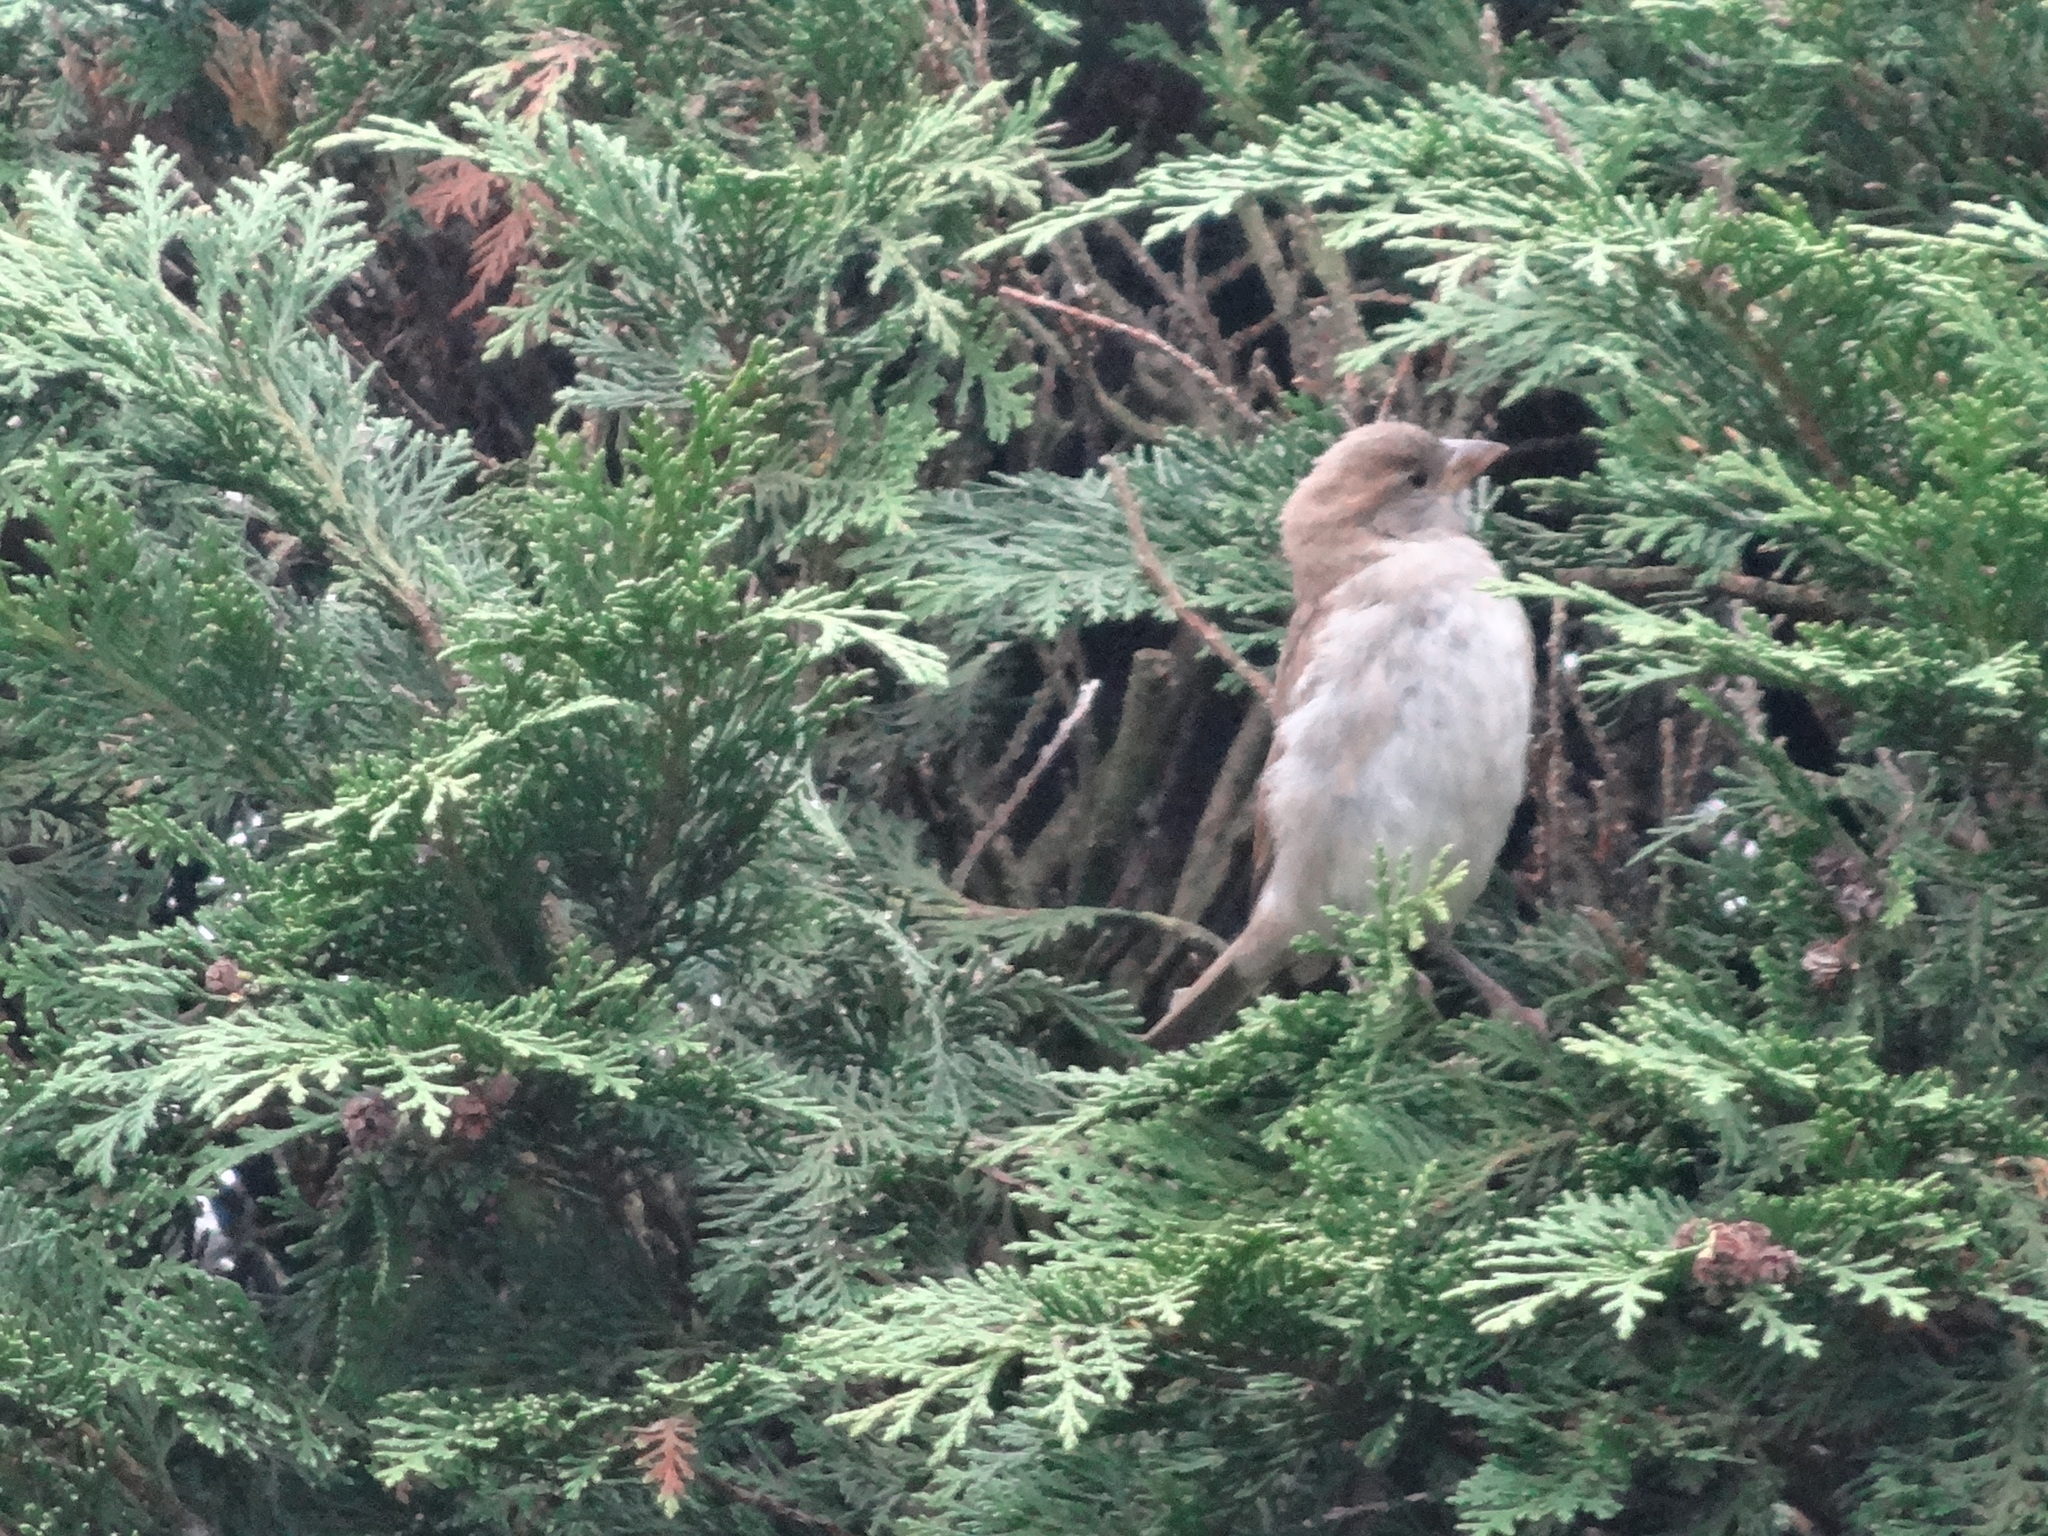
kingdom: Animalia
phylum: Chordata
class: Aves
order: Passeriformes
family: Passeridae
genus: Passer
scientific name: Passer domesticus
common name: House sparrow
